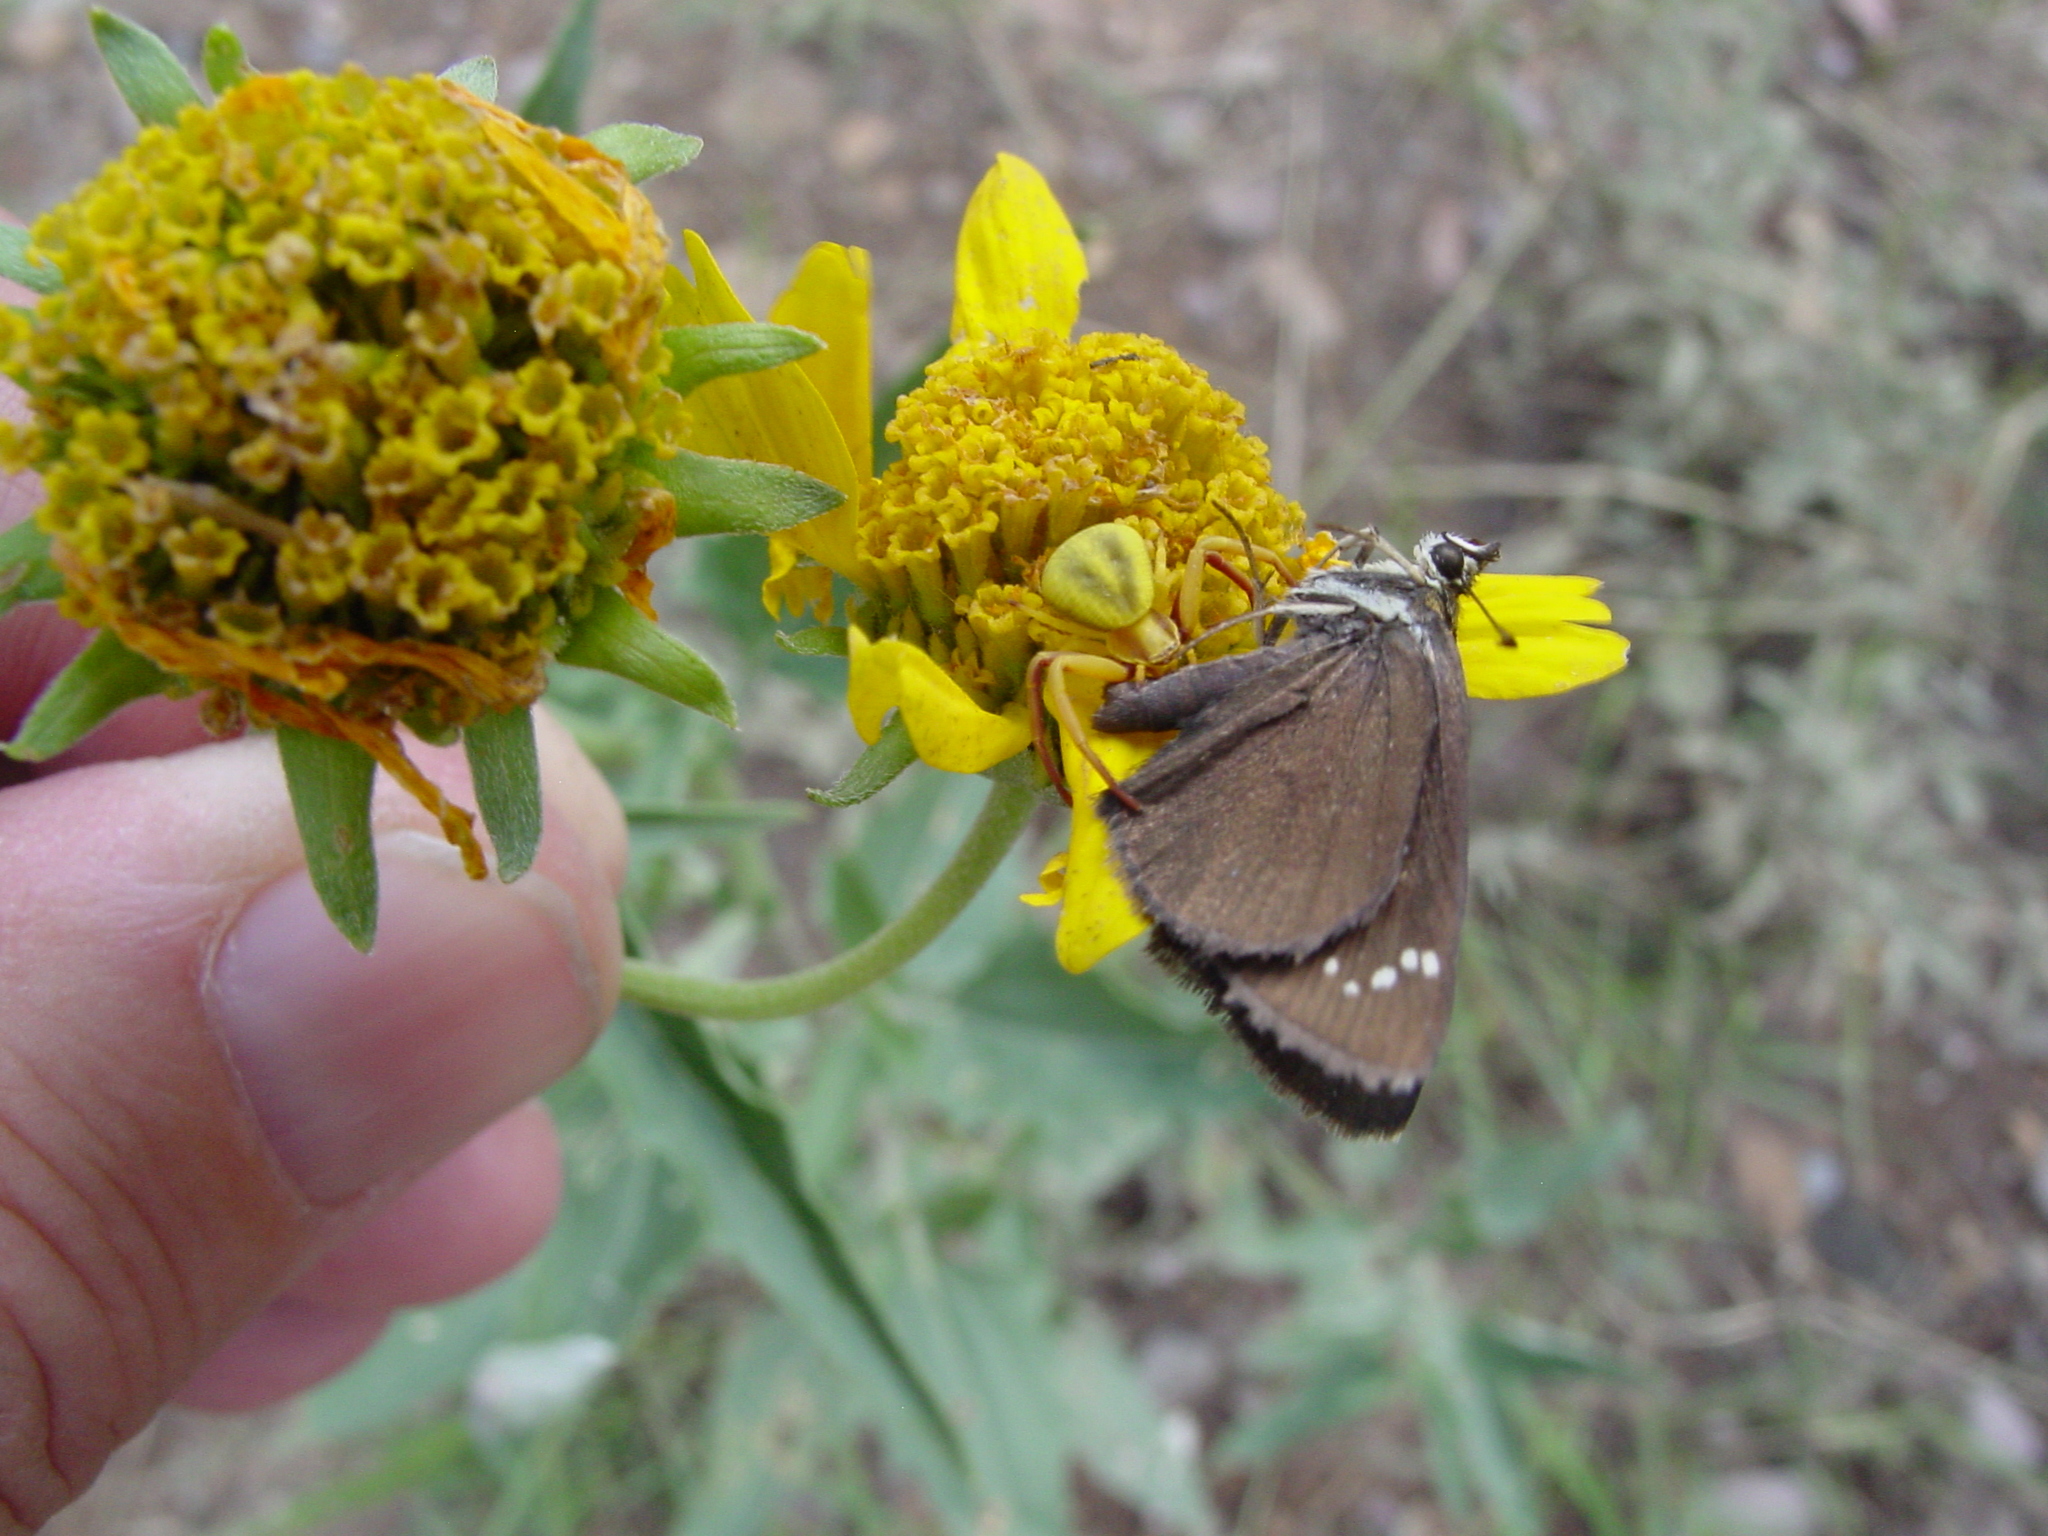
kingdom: Animalia
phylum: Arthropoda
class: Insecta
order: Lepidoptera
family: Hesperiidae
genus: Pholisora
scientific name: Pholisora catullus
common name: Common sootywing
